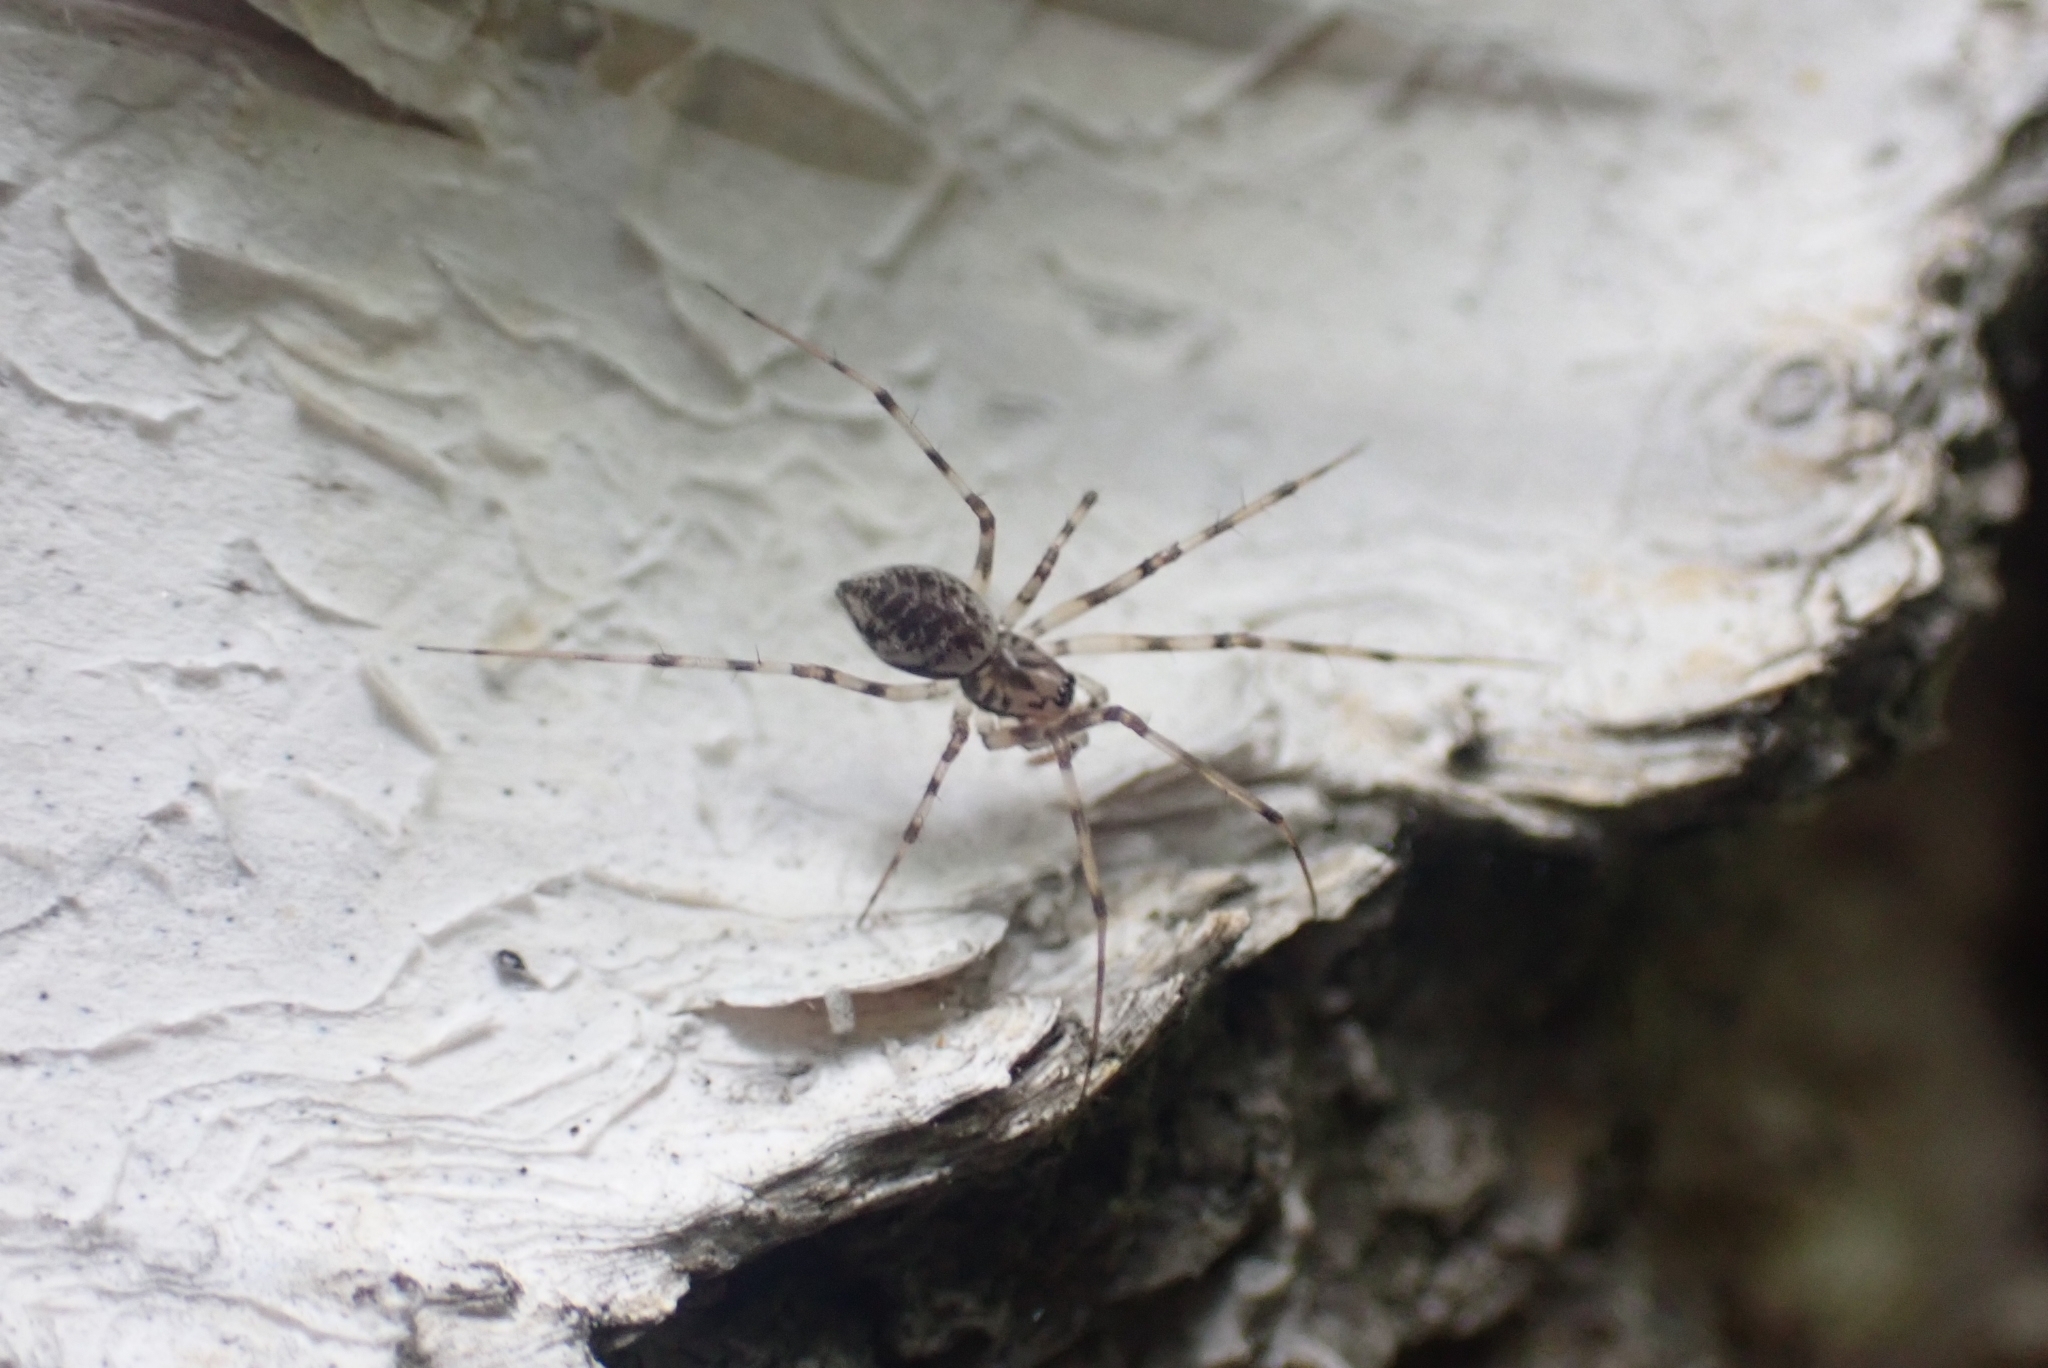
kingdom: Animalia
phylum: Arthropoda
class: Arachnida
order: Araneae
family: Linyphiidae
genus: Drapetisca
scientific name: Drapetisca socialis
